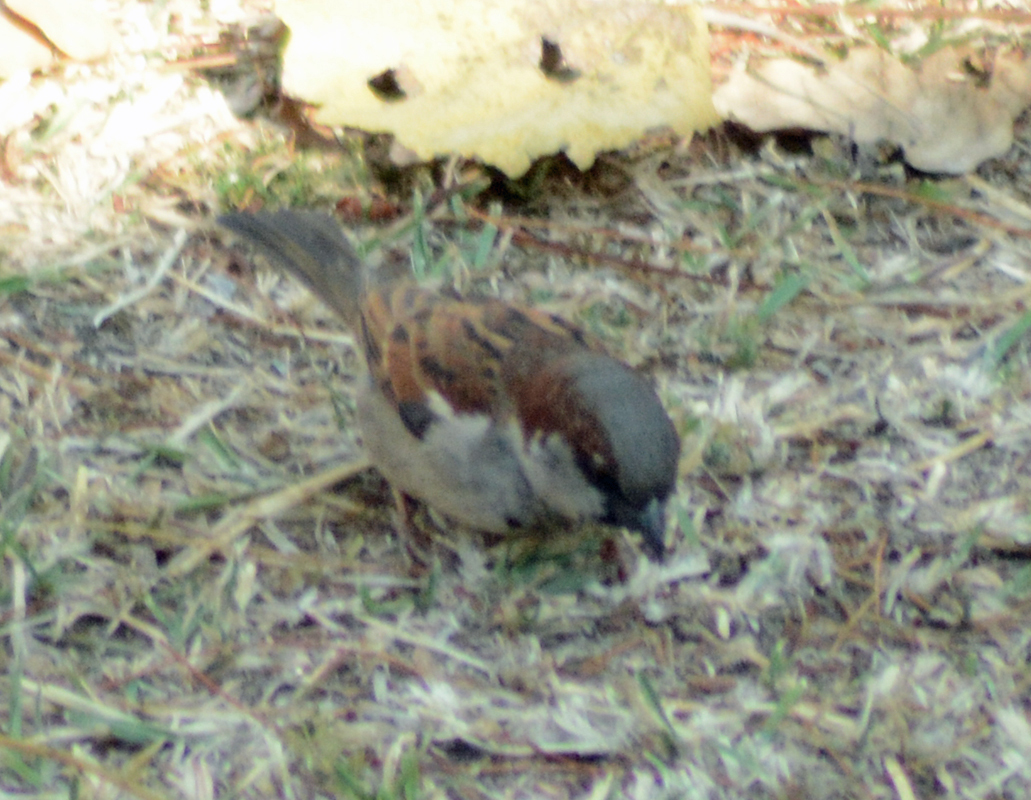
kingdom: Animalia
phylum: Chordata
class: Aves
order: Passeriformes
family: Passeridae
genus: Passer
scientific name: Passer domesticus
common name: House sparrow
